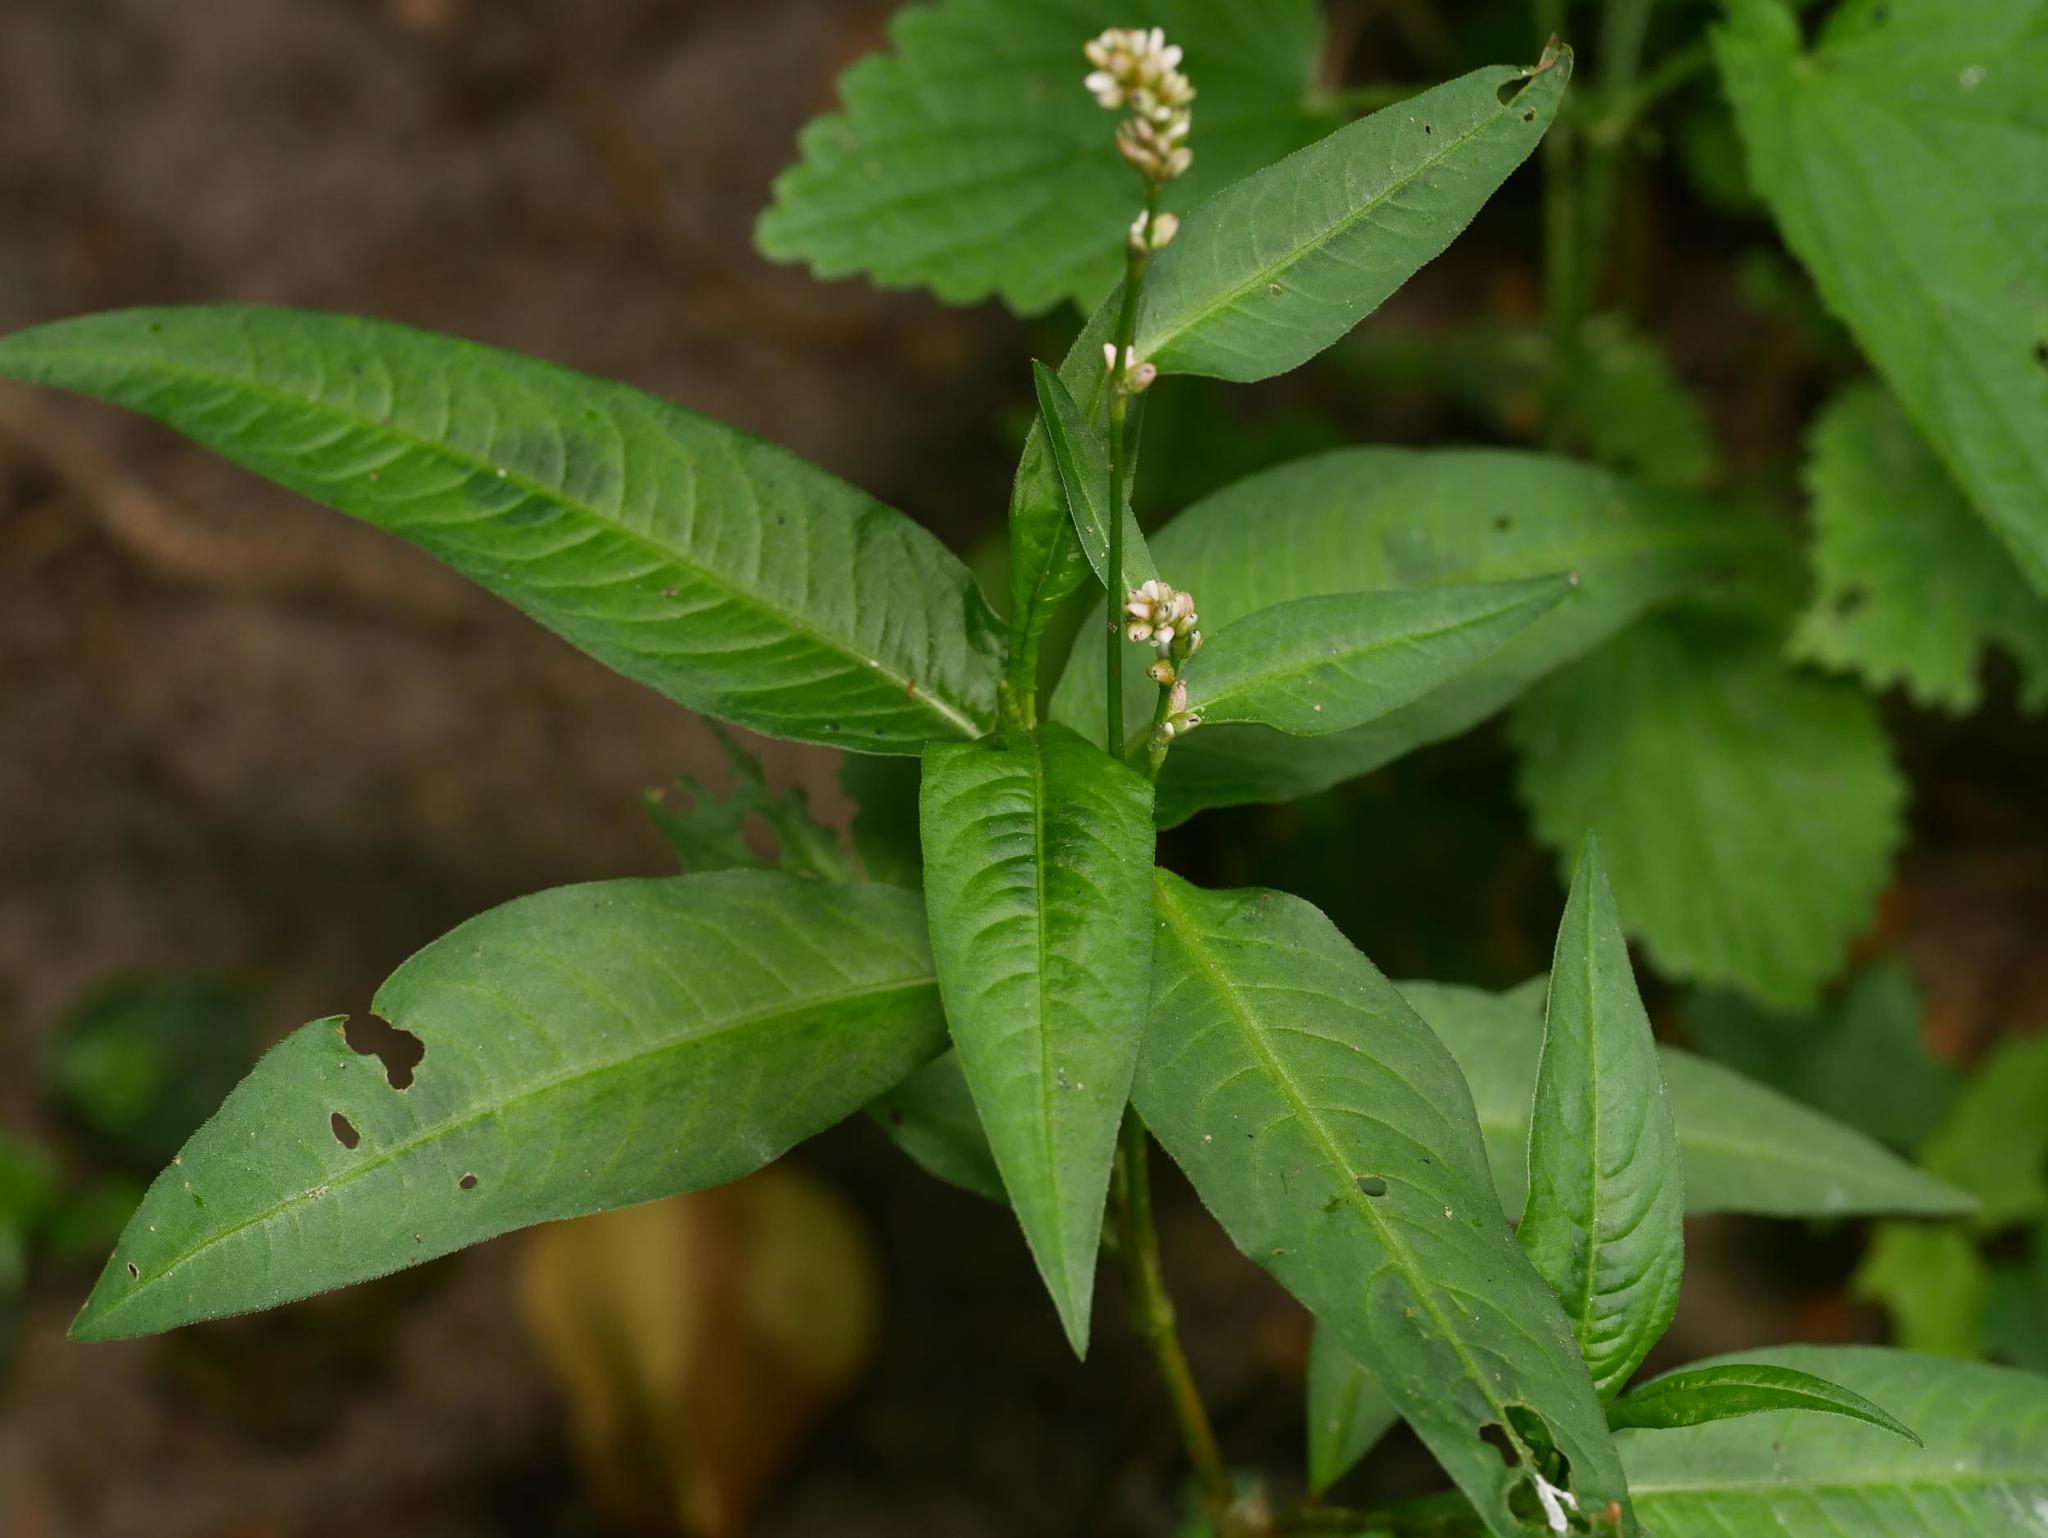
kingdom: Plantae
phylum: Tracheophyta
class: Magnoliopsida
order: Caryophyllales
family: Polygonaceae
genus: Persicaria
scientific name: Persicaria maculosa
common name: Redshank
